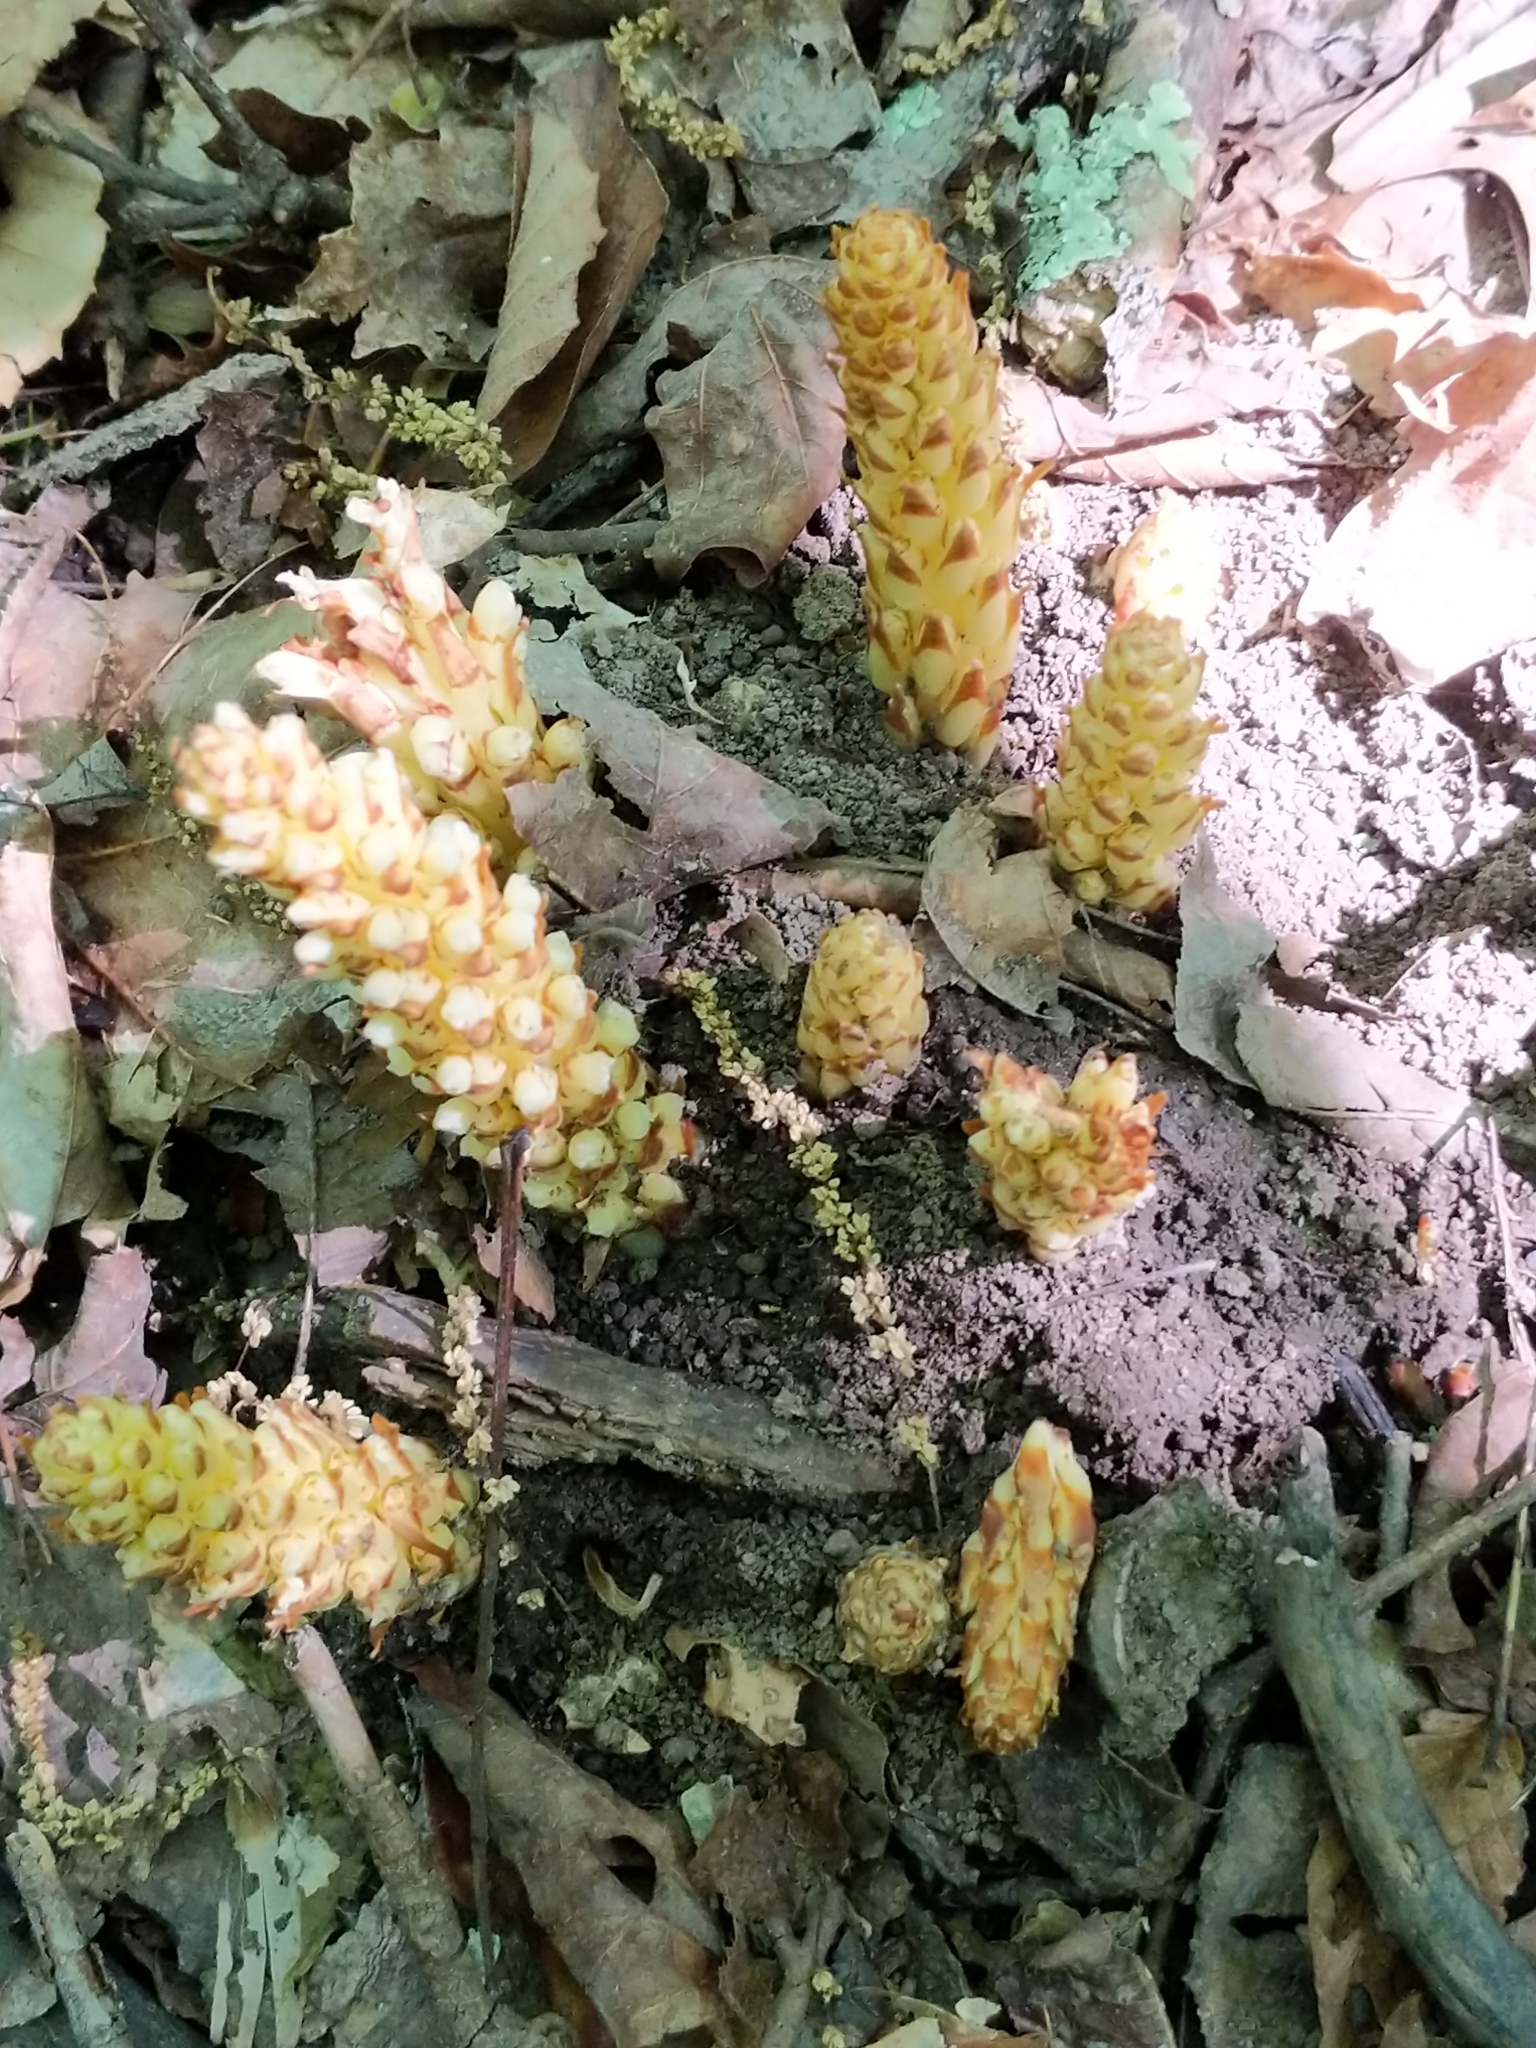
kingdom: Plantae
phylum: Tracheophyta
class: Magnoliopsida
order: Lamiales
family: Orobanchaceae
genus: Conopholis
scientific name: Conopholis americana
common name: American cancer-root
